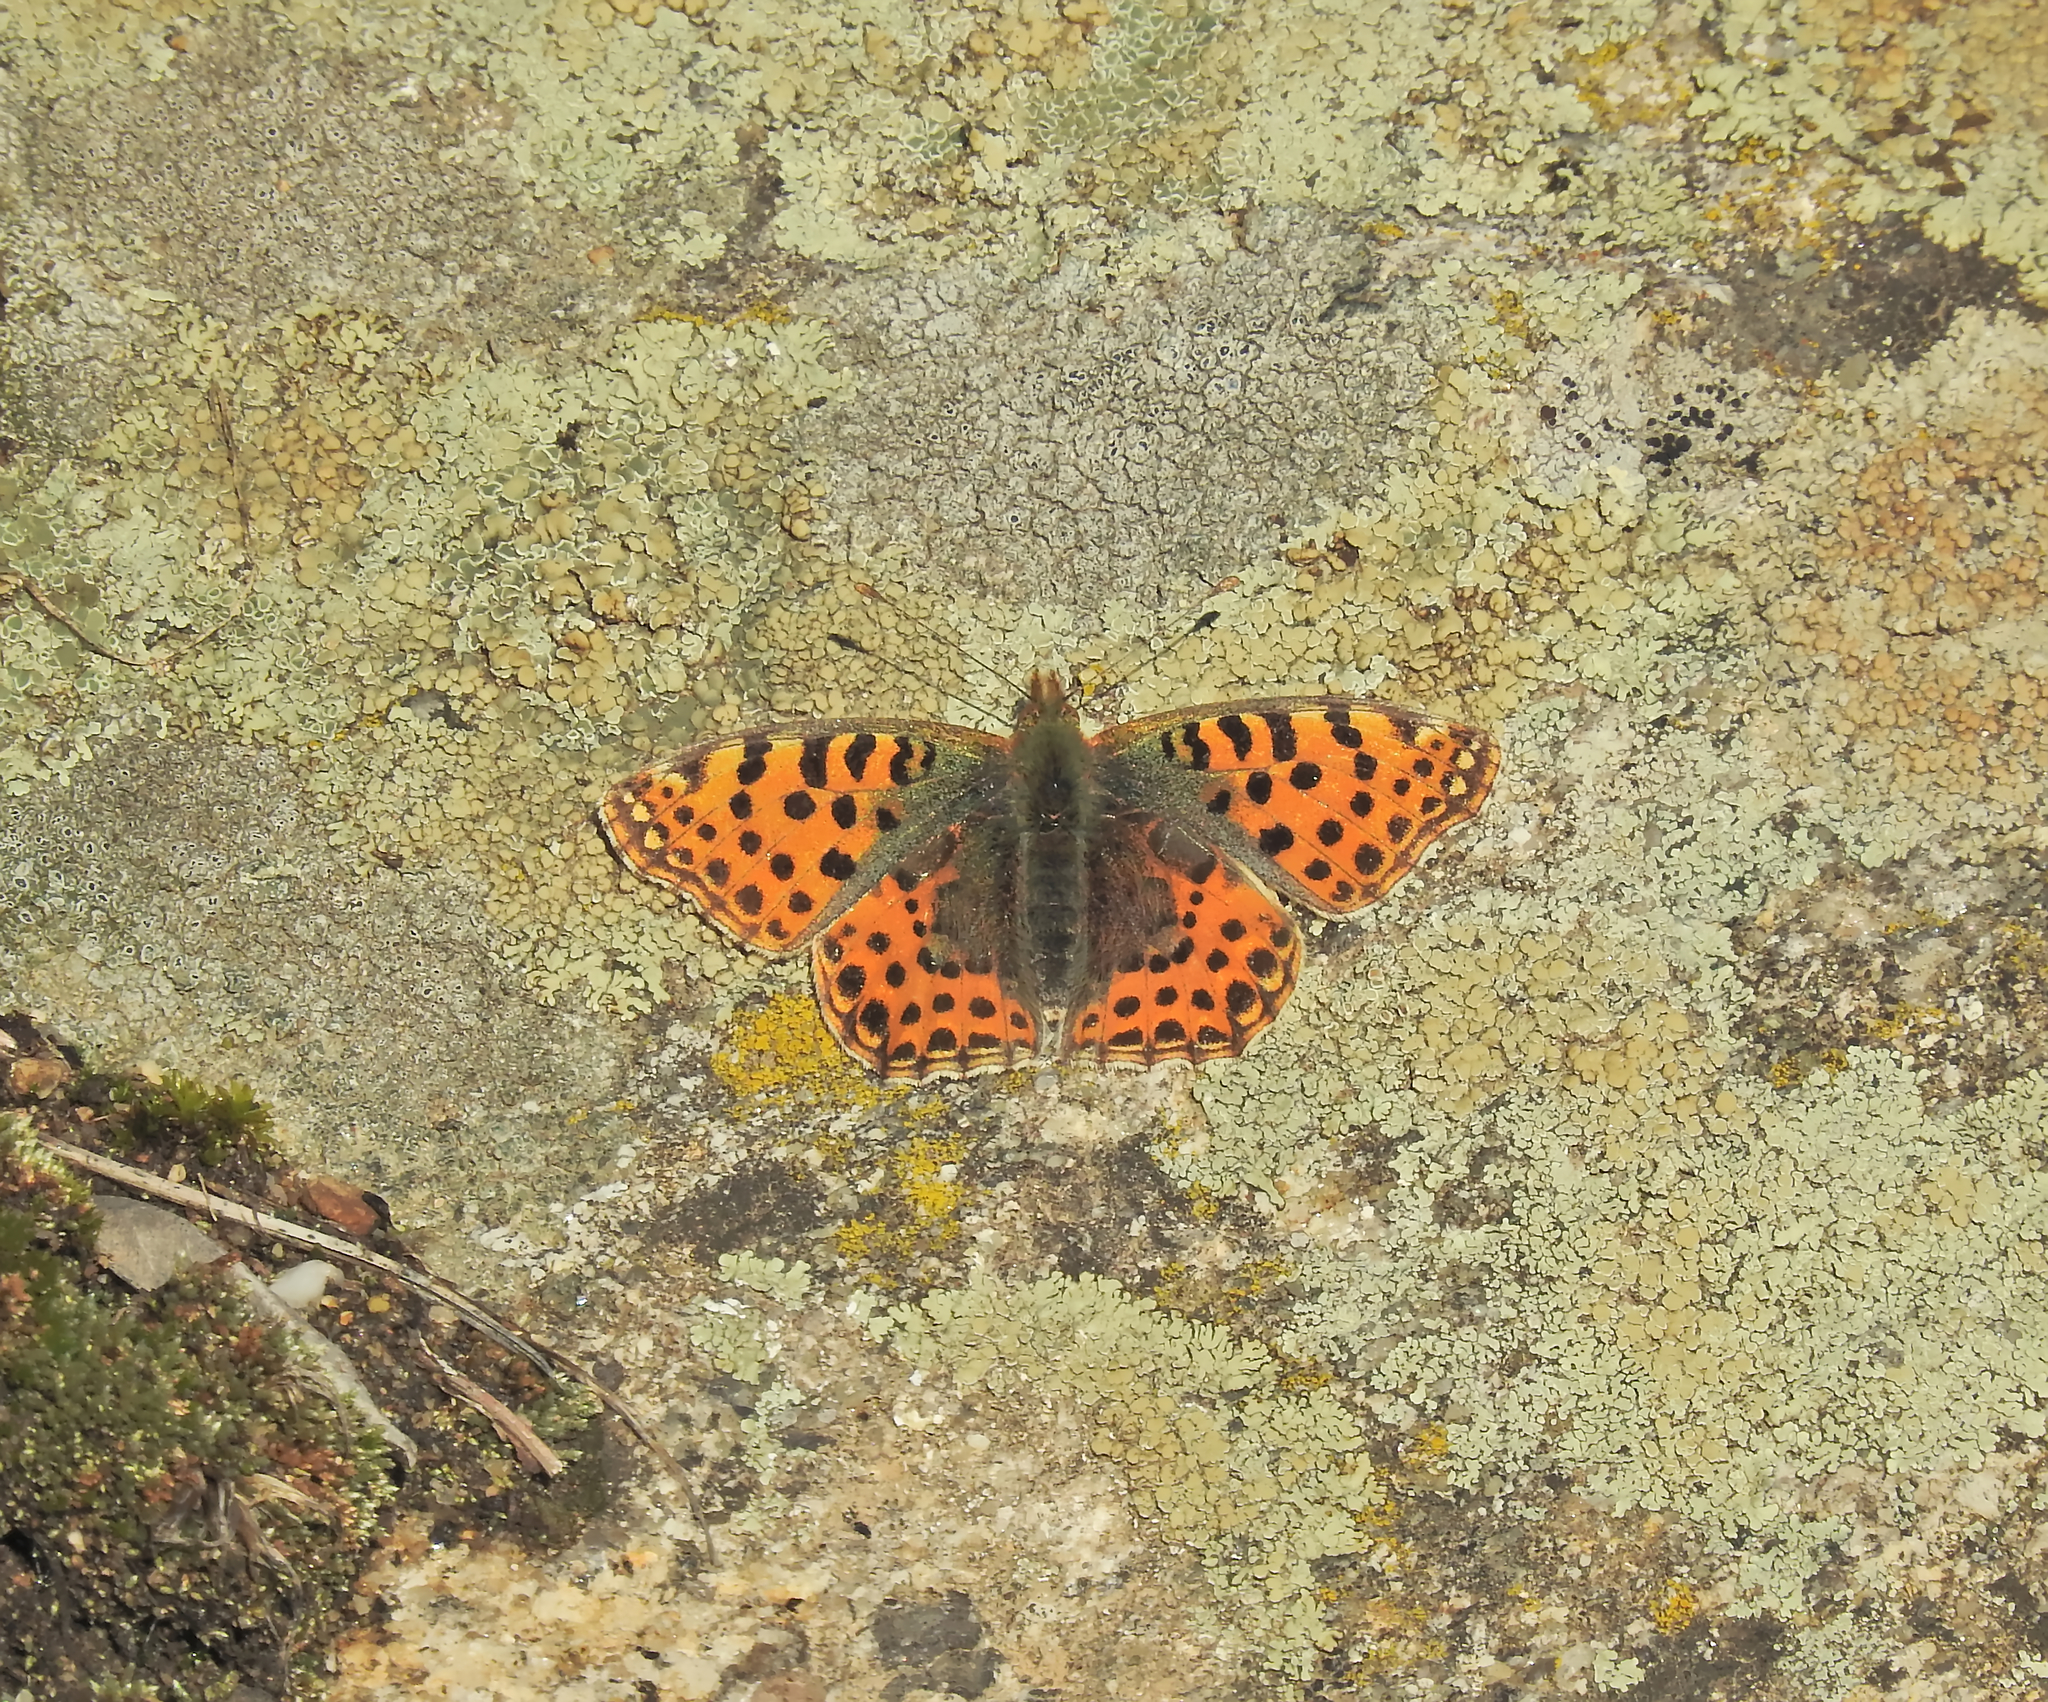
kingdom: Animalia
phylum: Arthropoda
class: Insecta
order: Lepidoptera
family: Nymphalidae
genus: Issoria
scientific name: Issoria lathonia
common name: Queen of spain fritillary
